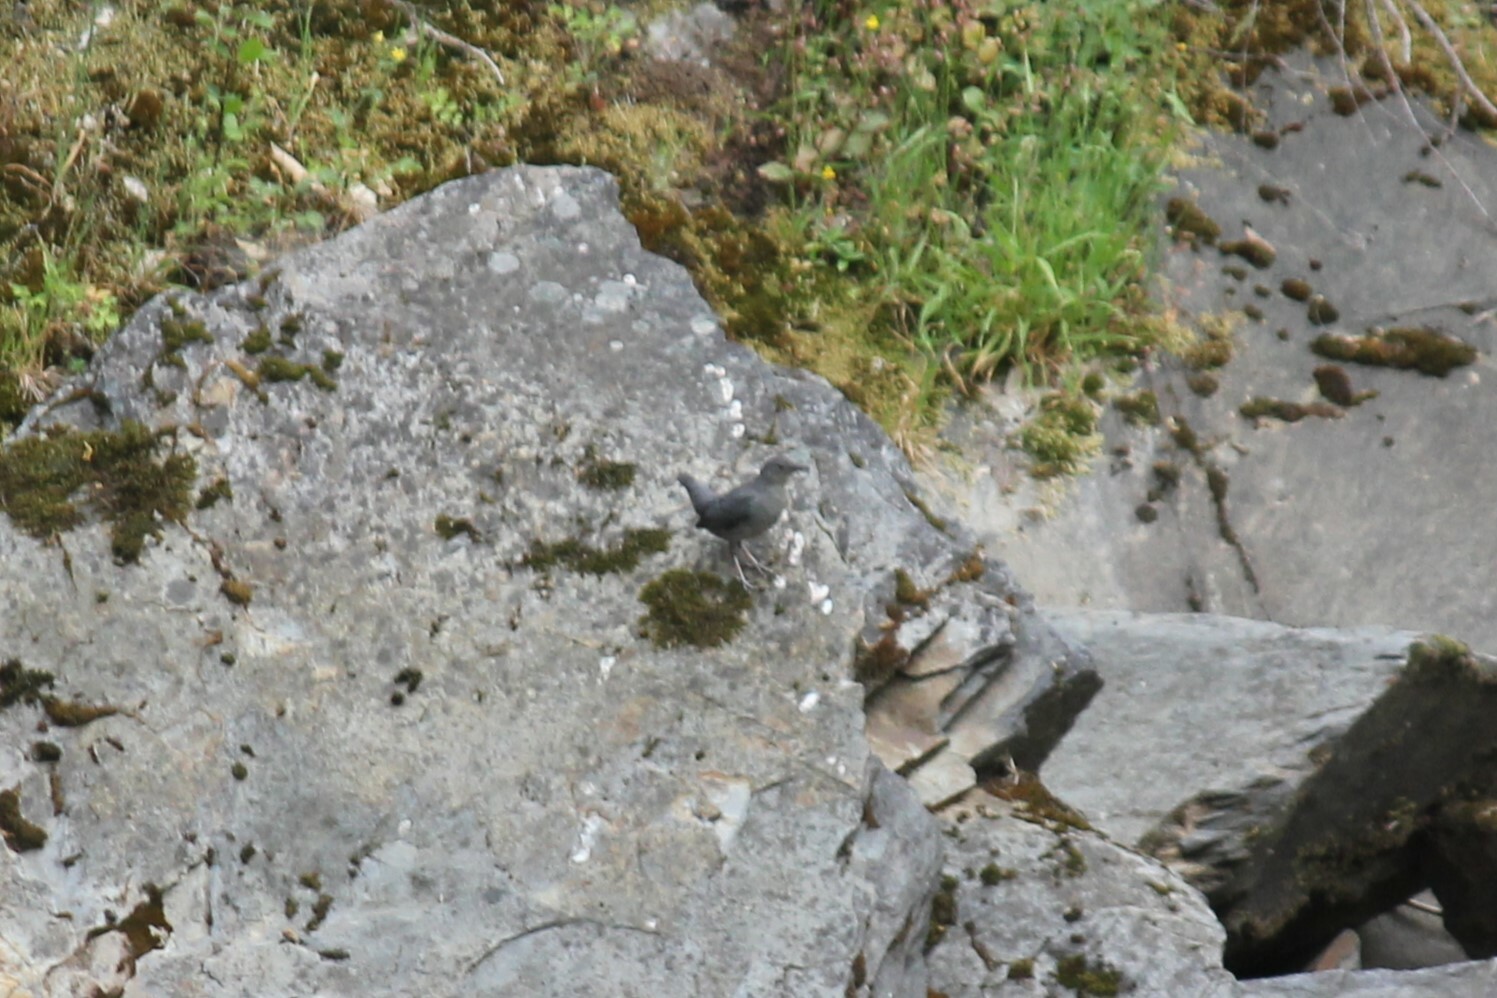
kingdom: Animalia
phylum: Chordata
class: Aves
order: Passeriformes
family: Cinclidae
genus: Cinclus
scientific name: Cinclus mexicanus
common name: American dipper
